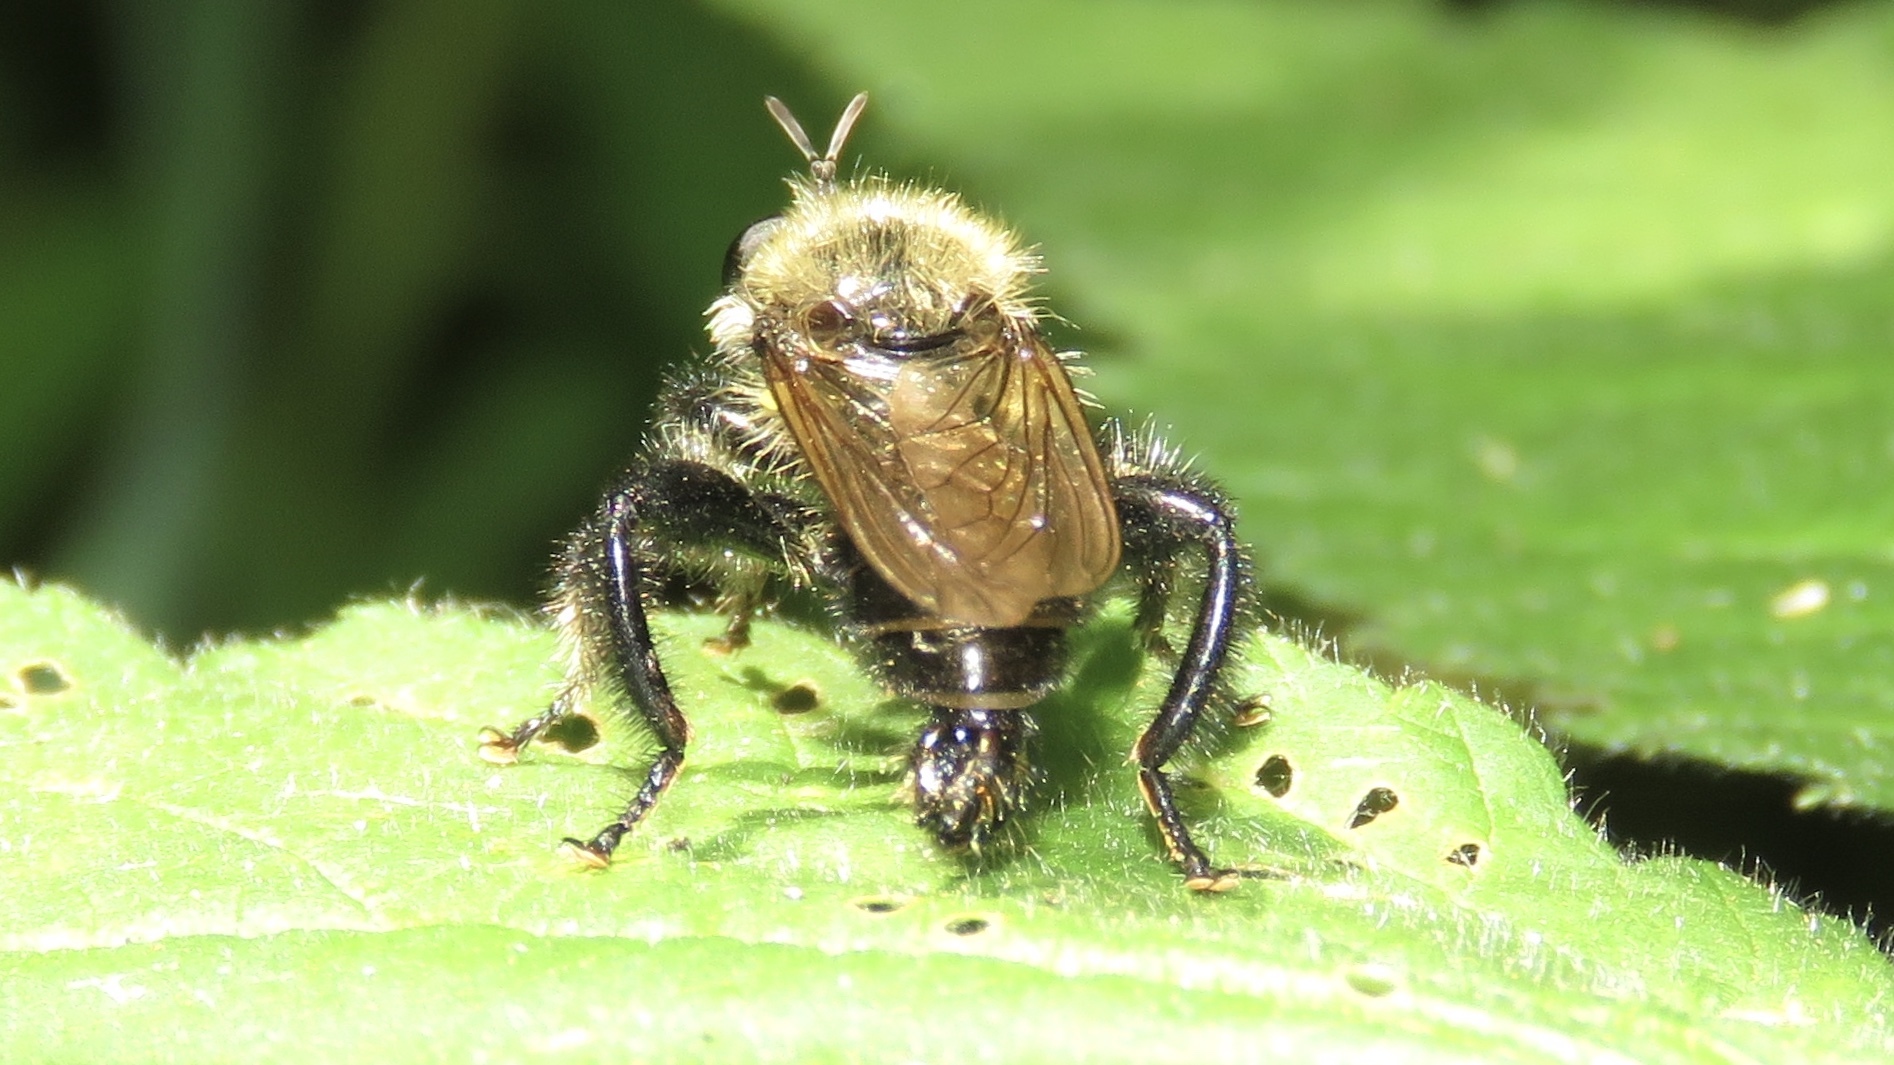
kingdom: Animalia
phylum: Arthropoda
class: Insecta
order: Diptera
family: Asilidae
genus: Laphria
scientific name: Laphria flavicollis
